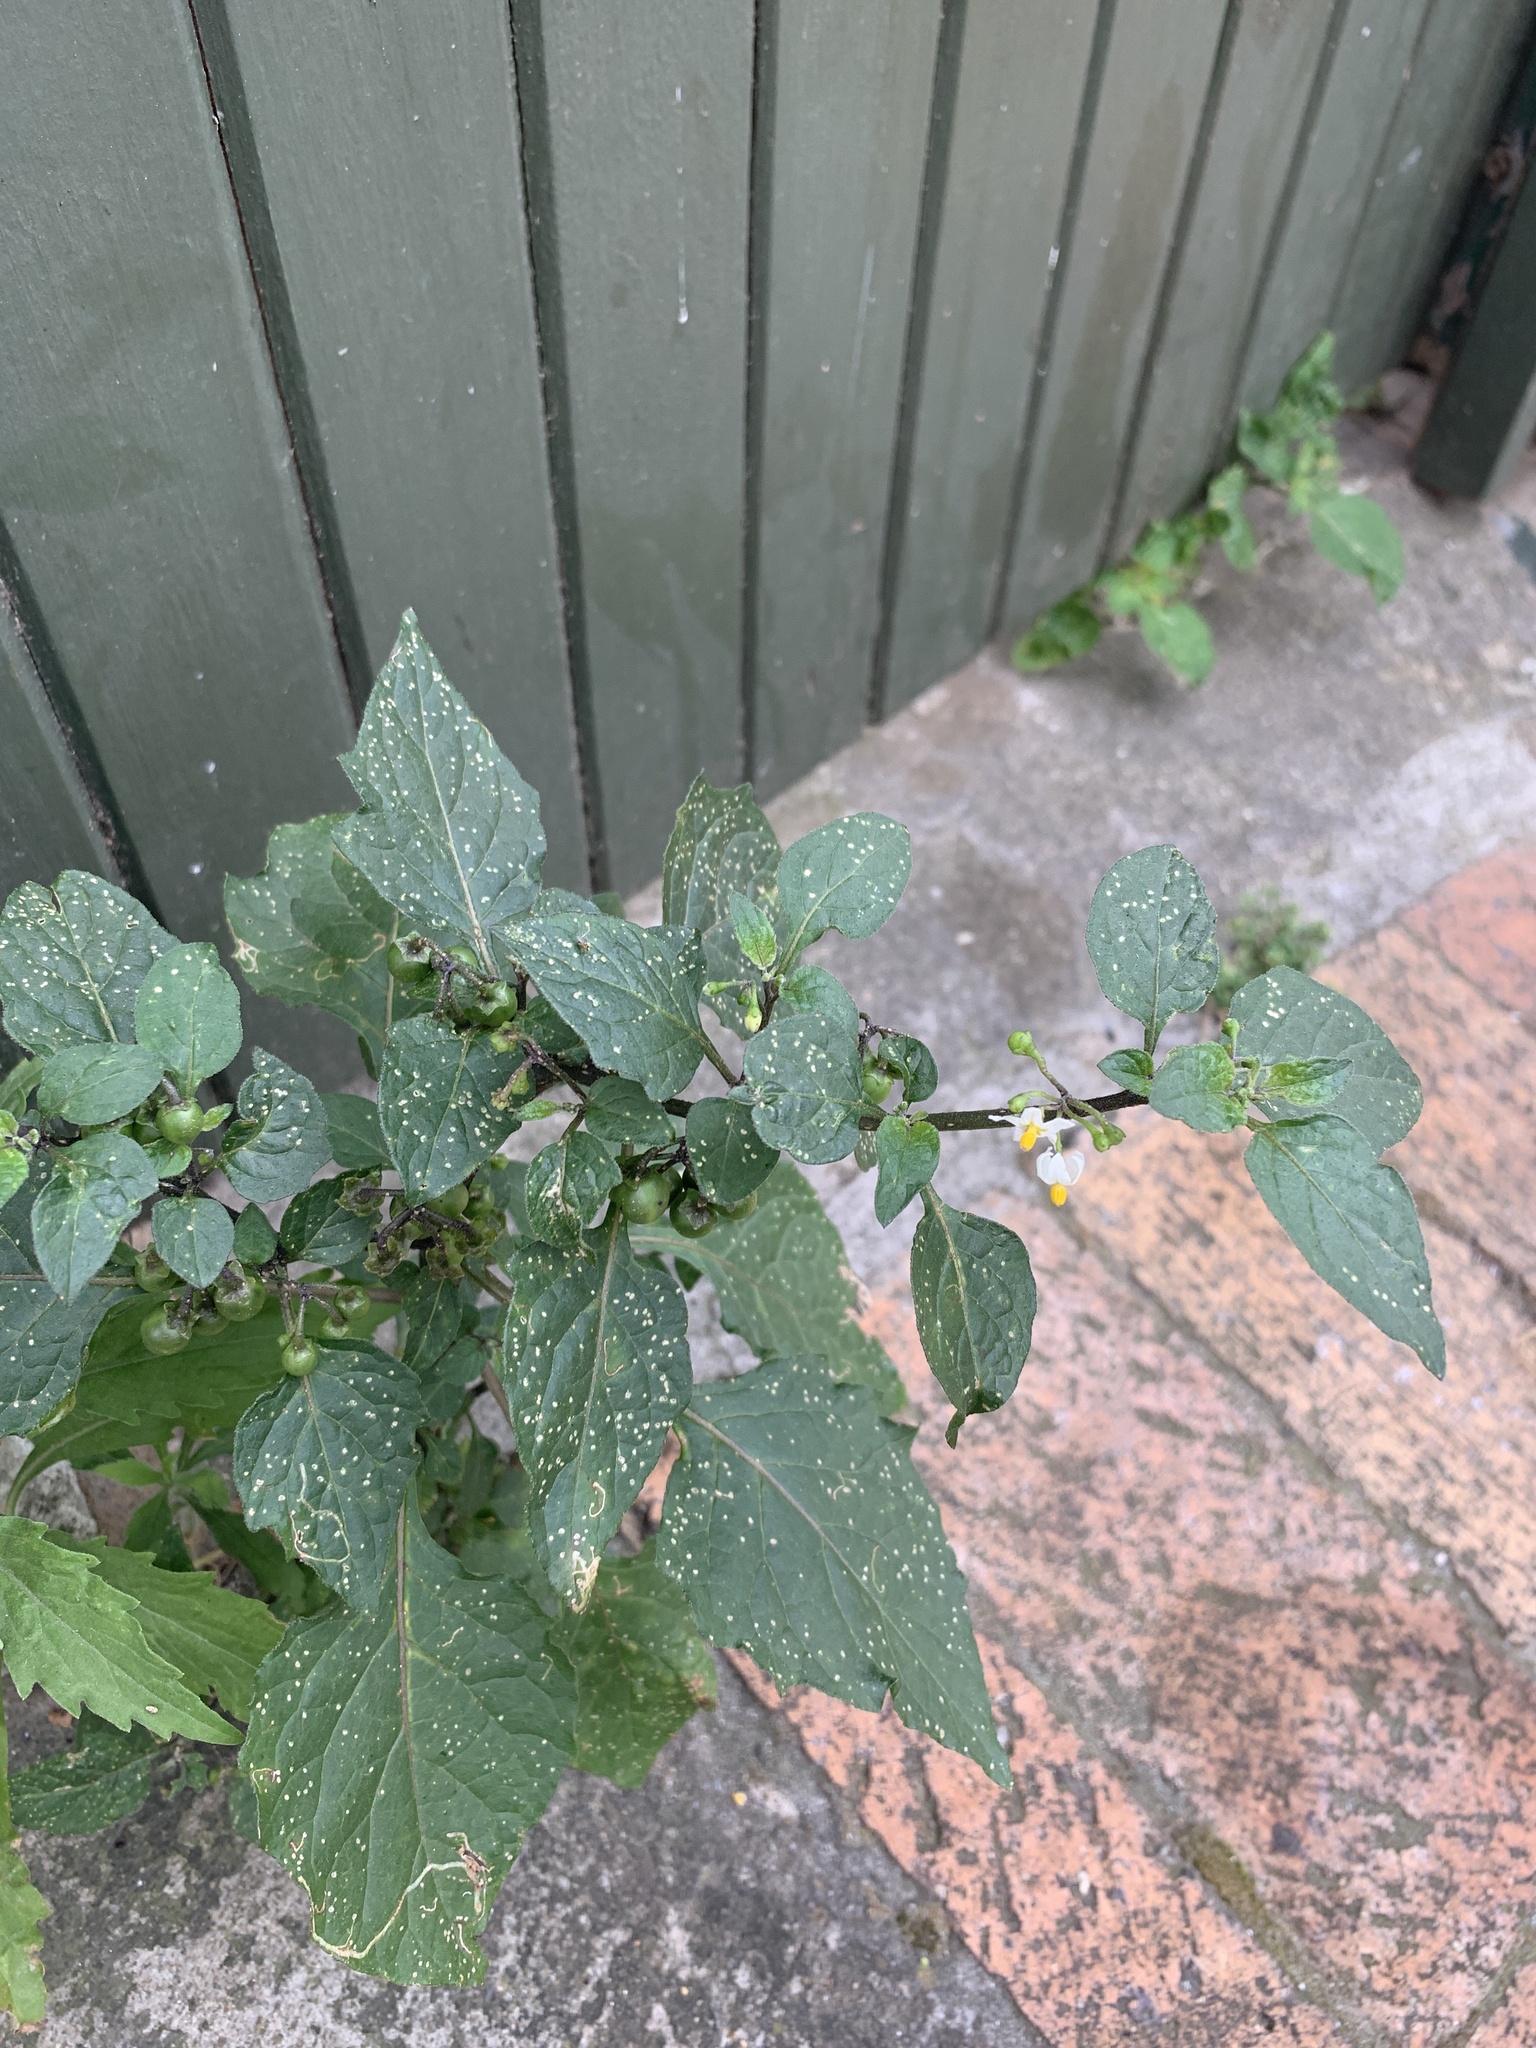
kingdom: Plantae
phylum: Tracheophyta
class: Magnoliopsida
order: Solanales
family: Solanaceae
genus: Solanum
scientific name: Solanum nigrum
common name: Black nightshade
